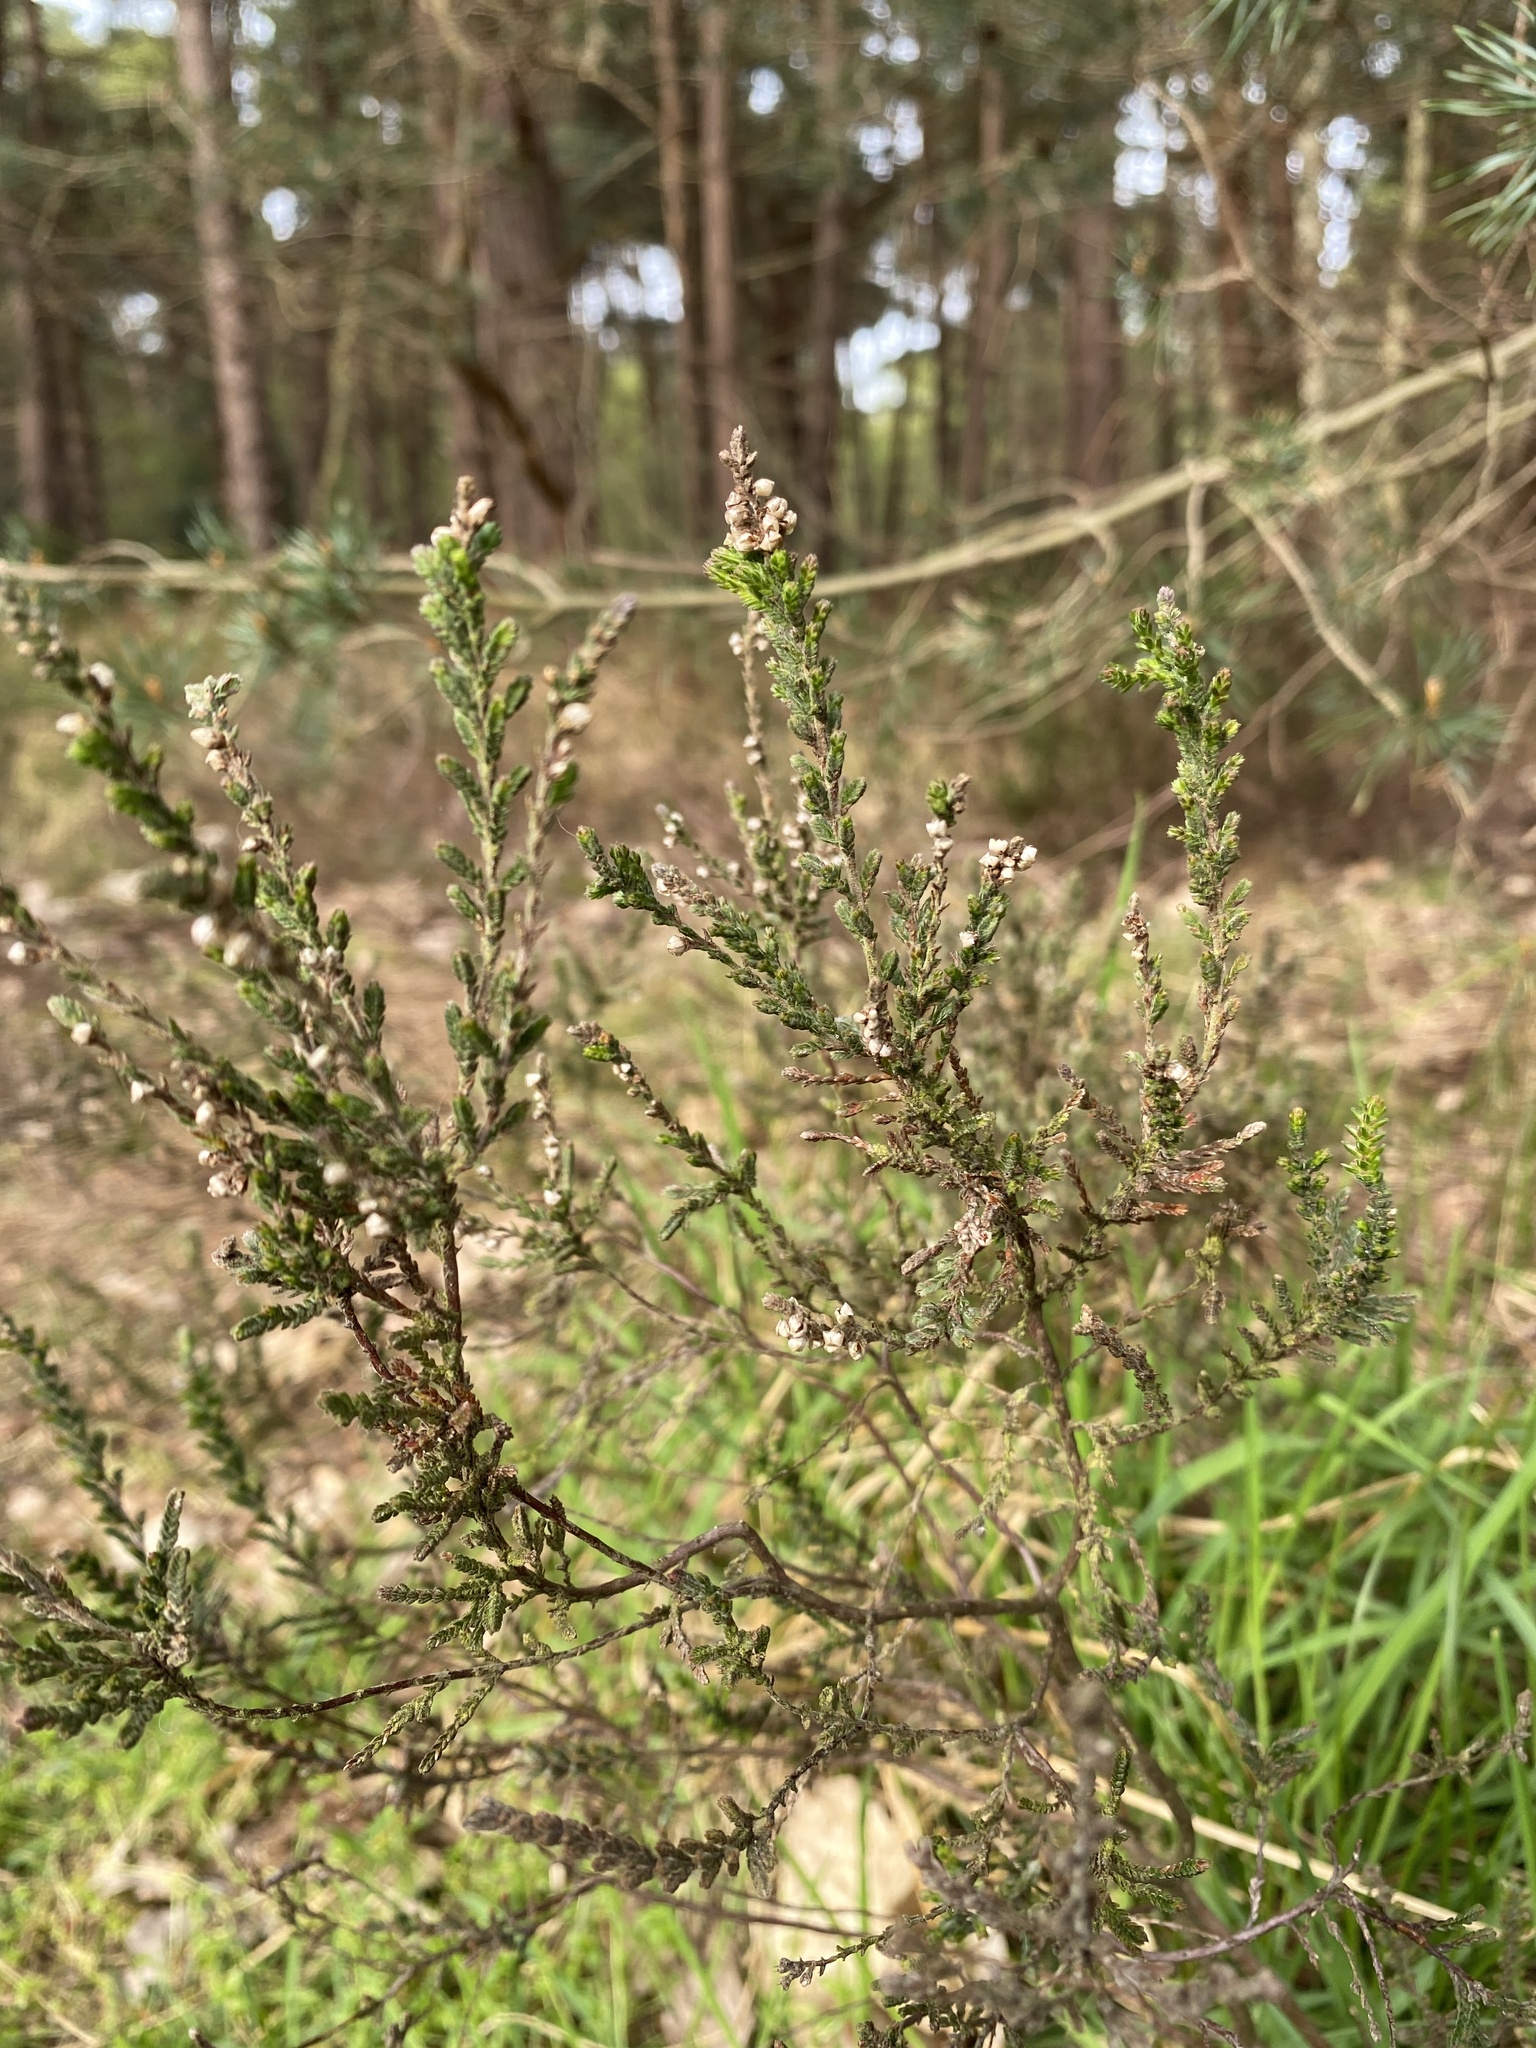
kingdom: Plantae
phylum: Tracheophyta
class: Magnoliopsida
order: Ericales
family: Ericaceae
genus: Calluna
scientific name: Calluna vulgaris
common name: Heather
